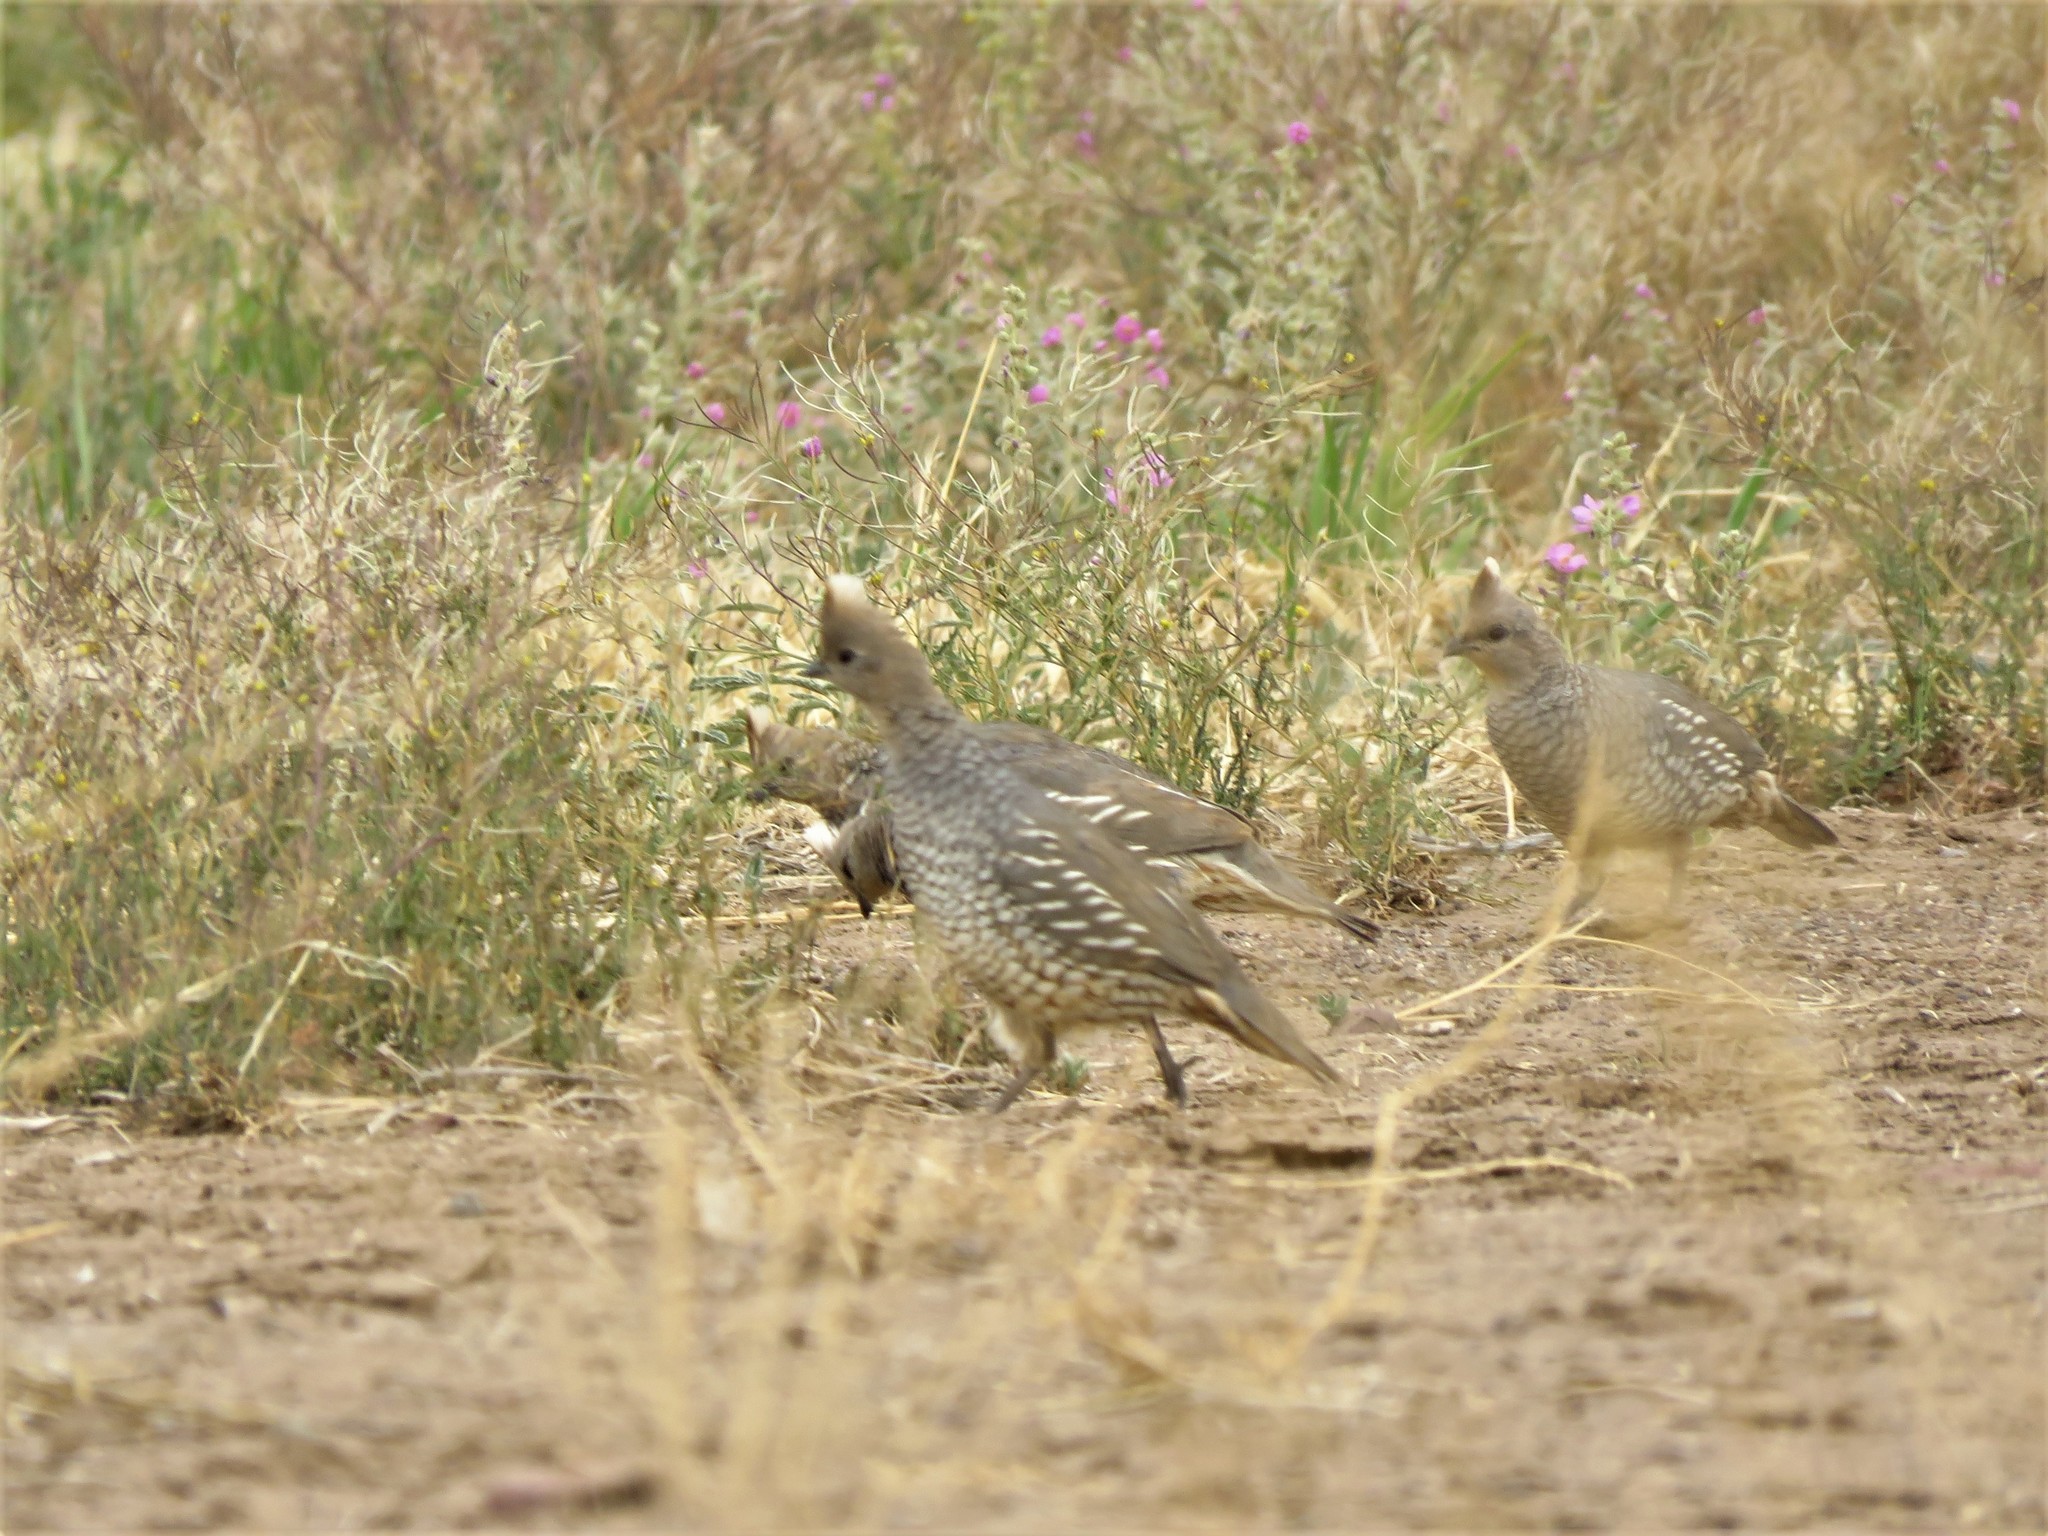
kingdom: Animalia
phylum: Chordata
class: Aves
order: Galliformes
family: Odontophoridae
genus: Callipepla
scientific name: Callipepla squamata
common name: Scaled quail
